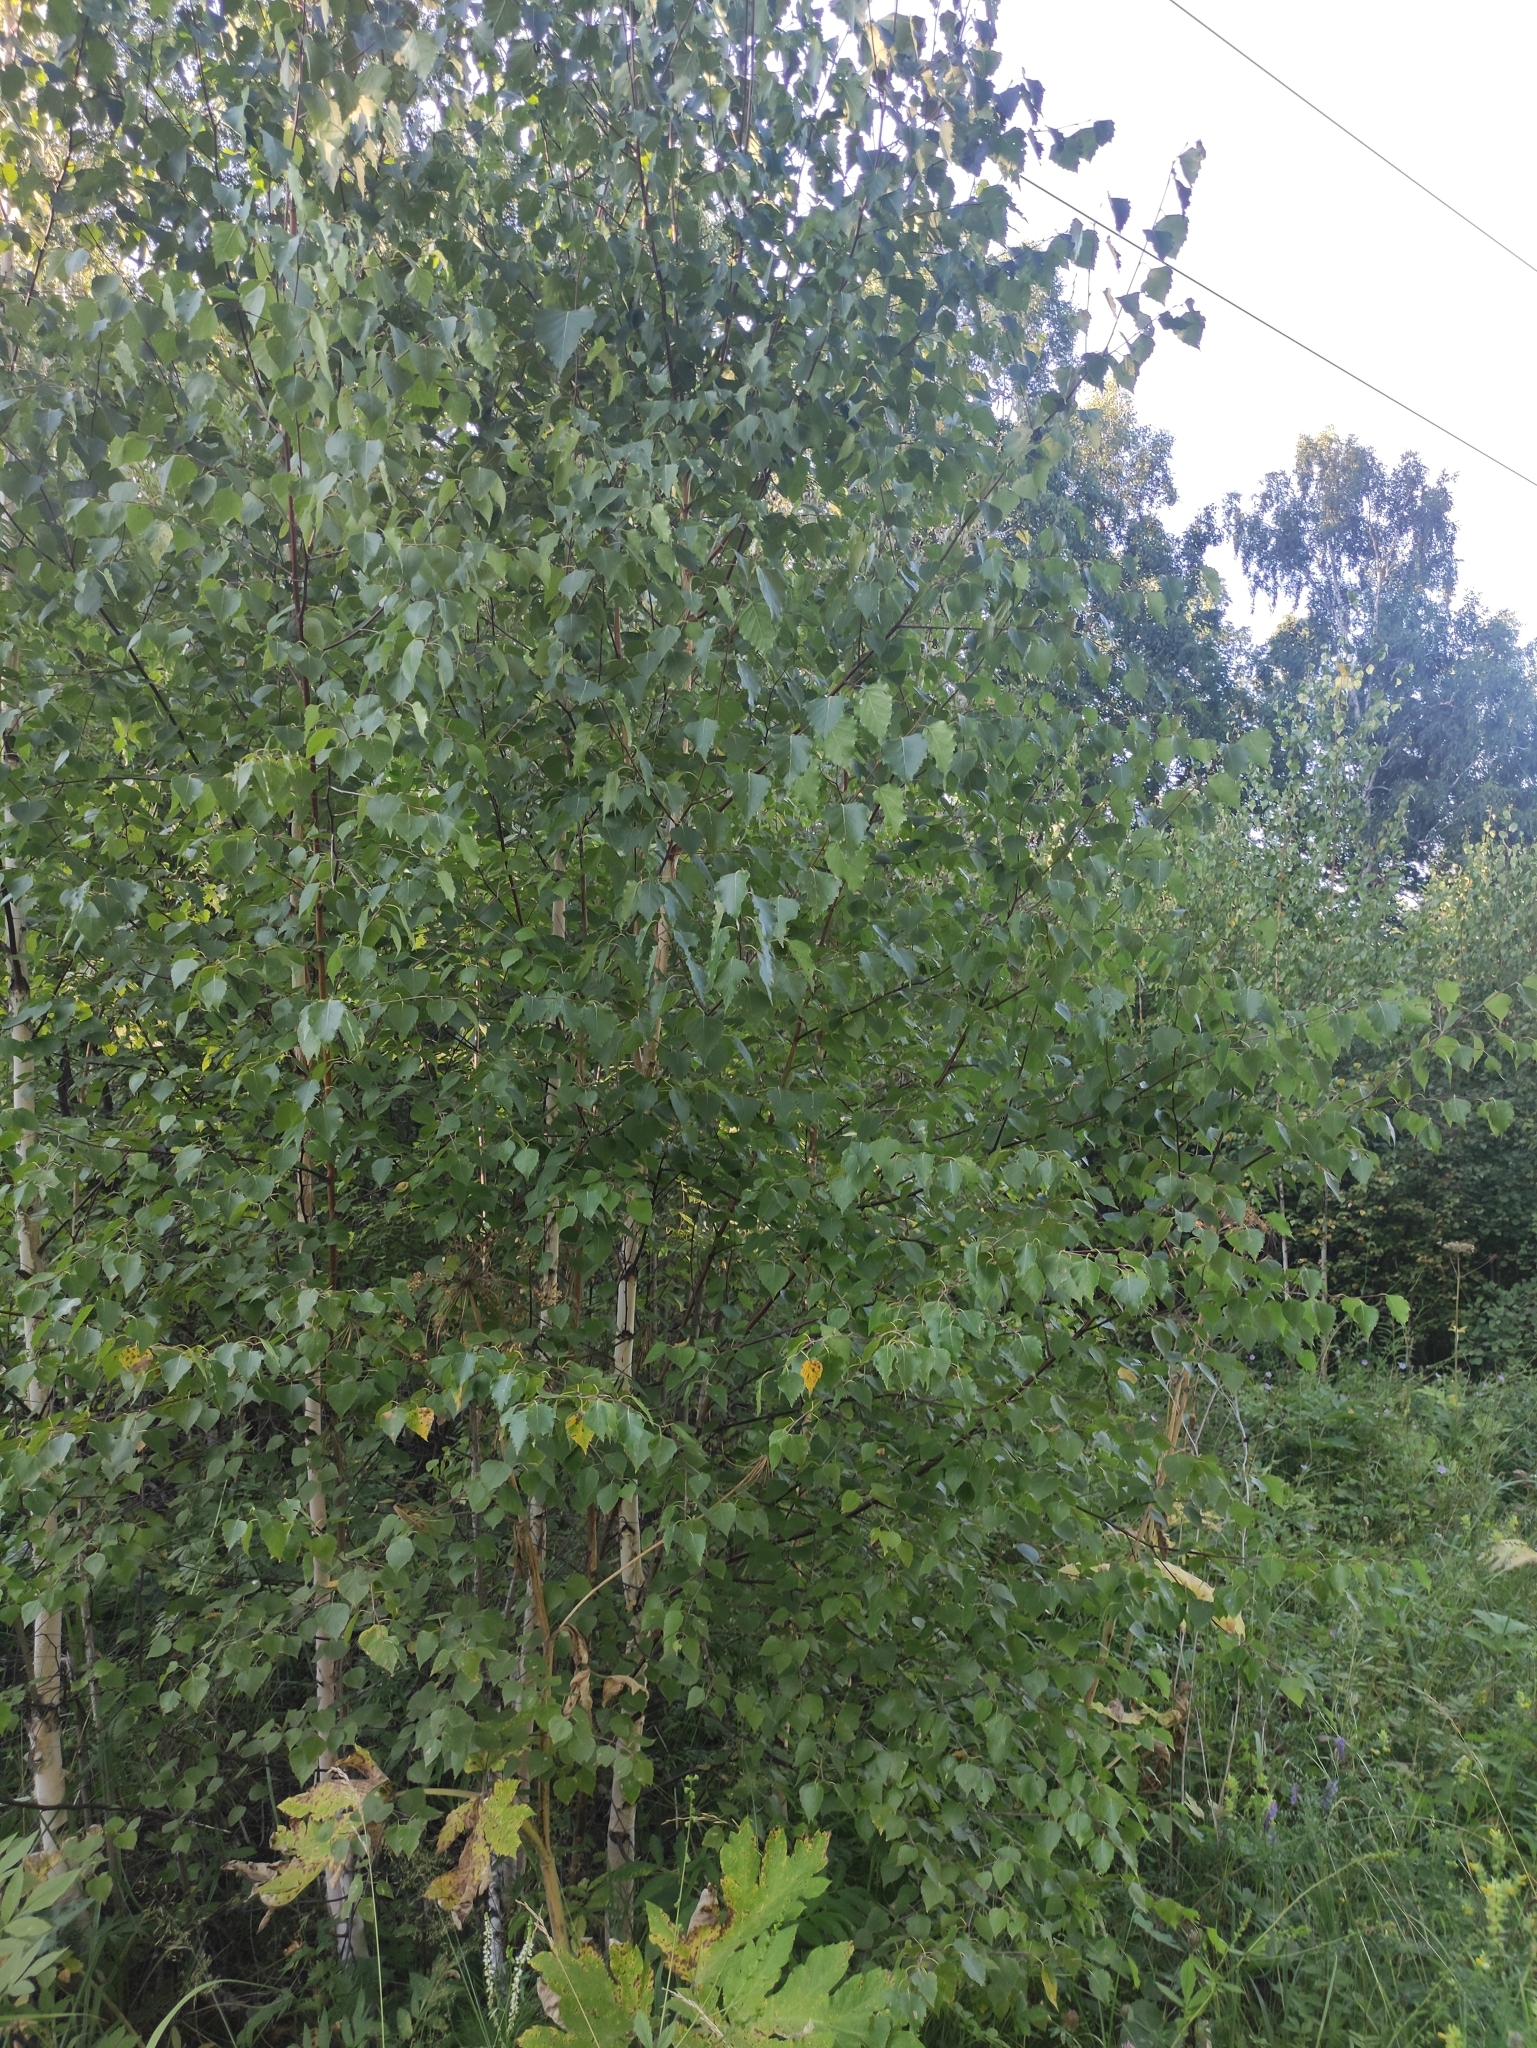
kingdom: Plantae
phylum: Tracheophyta
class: Magnoliopsida
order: Fagales
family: Betulaceae
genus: Betula
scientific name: Betula pendula
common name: Silver birch
